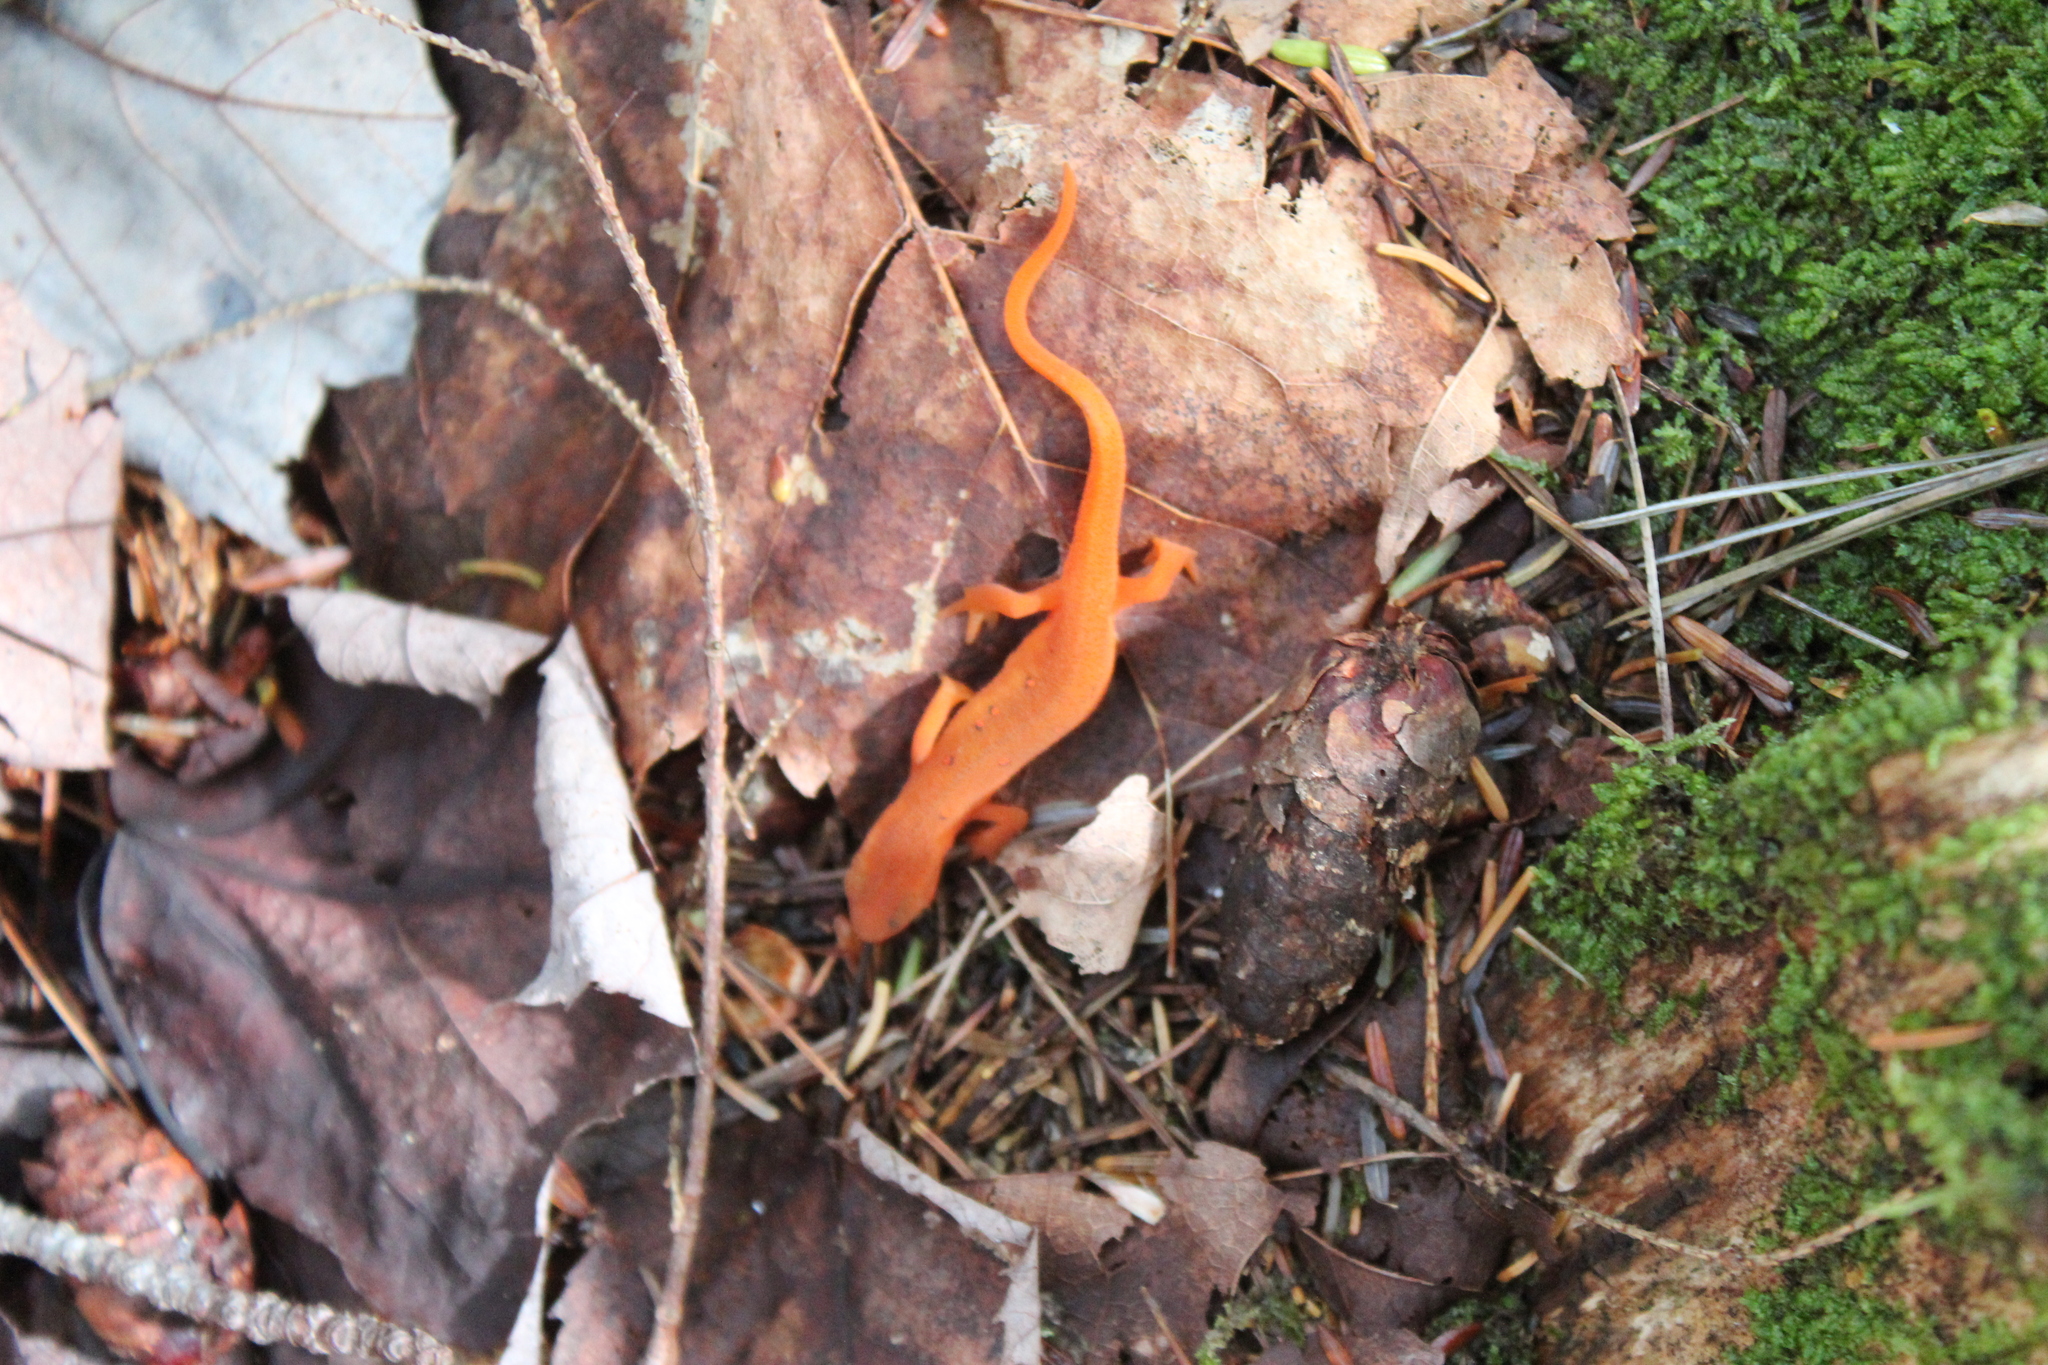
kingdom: Animalia
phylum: Chordata
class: Amphibia
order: Caudata
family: Salamandridae
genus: Notophthalmus
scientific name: Notophthalmus viridescens
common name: Eastern newt
